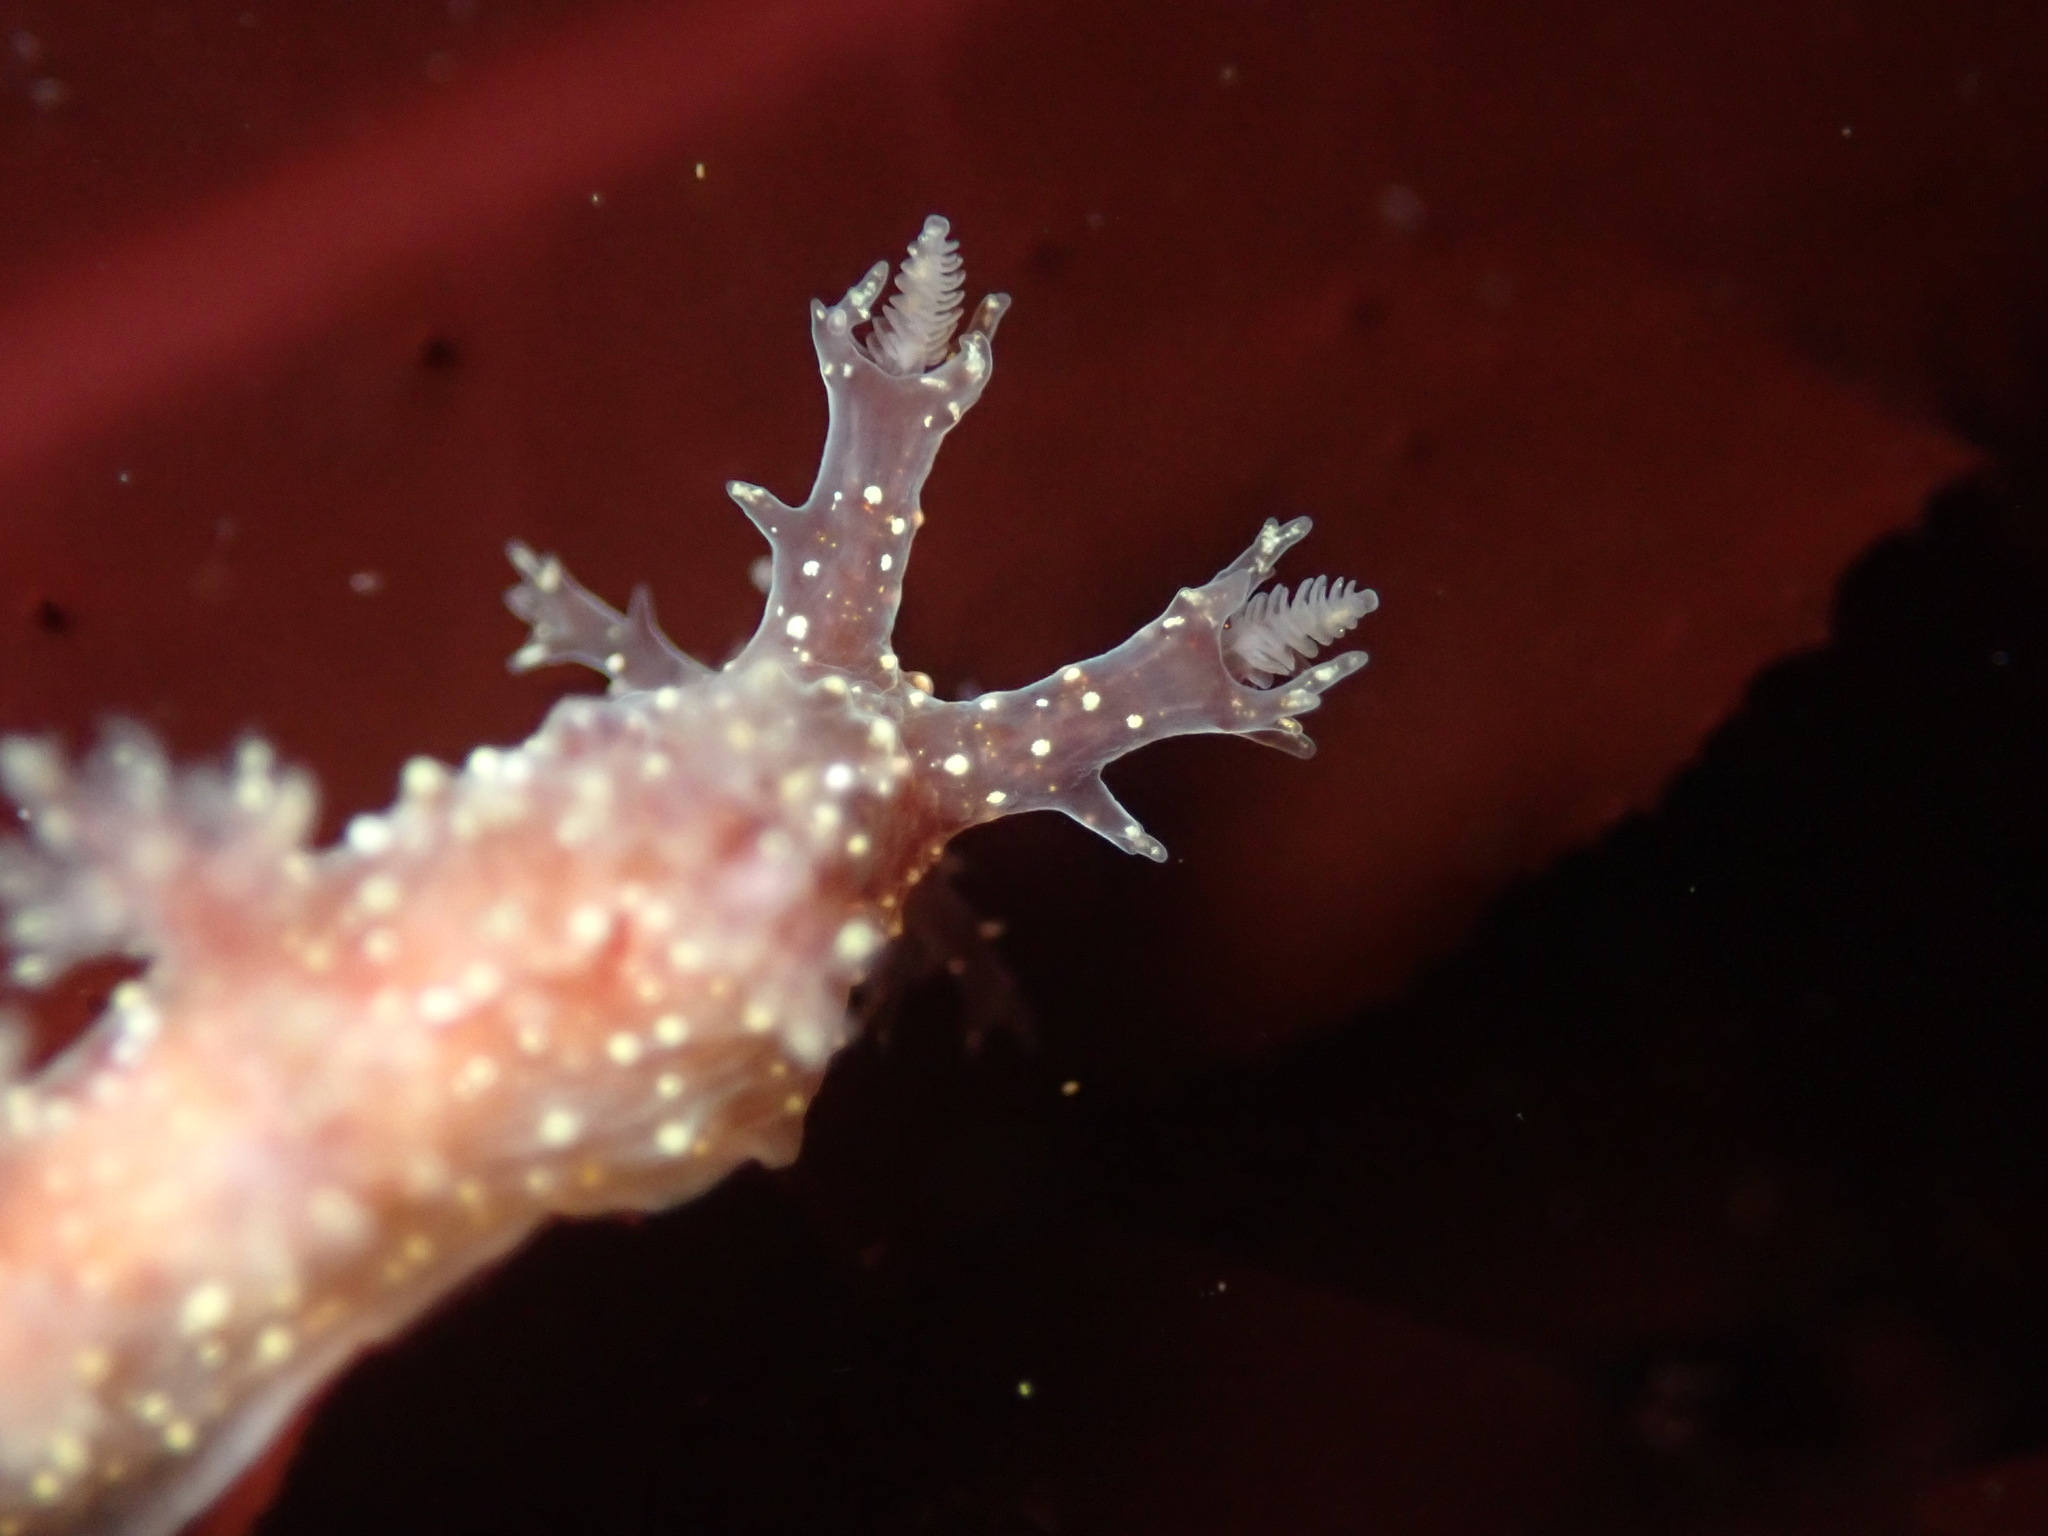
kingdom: Animalia
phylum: Mollusca
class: Gastropoda
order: Nudibranchia
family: Dendronotidae
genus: Dendronotus
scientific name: Dendronotus venustus
